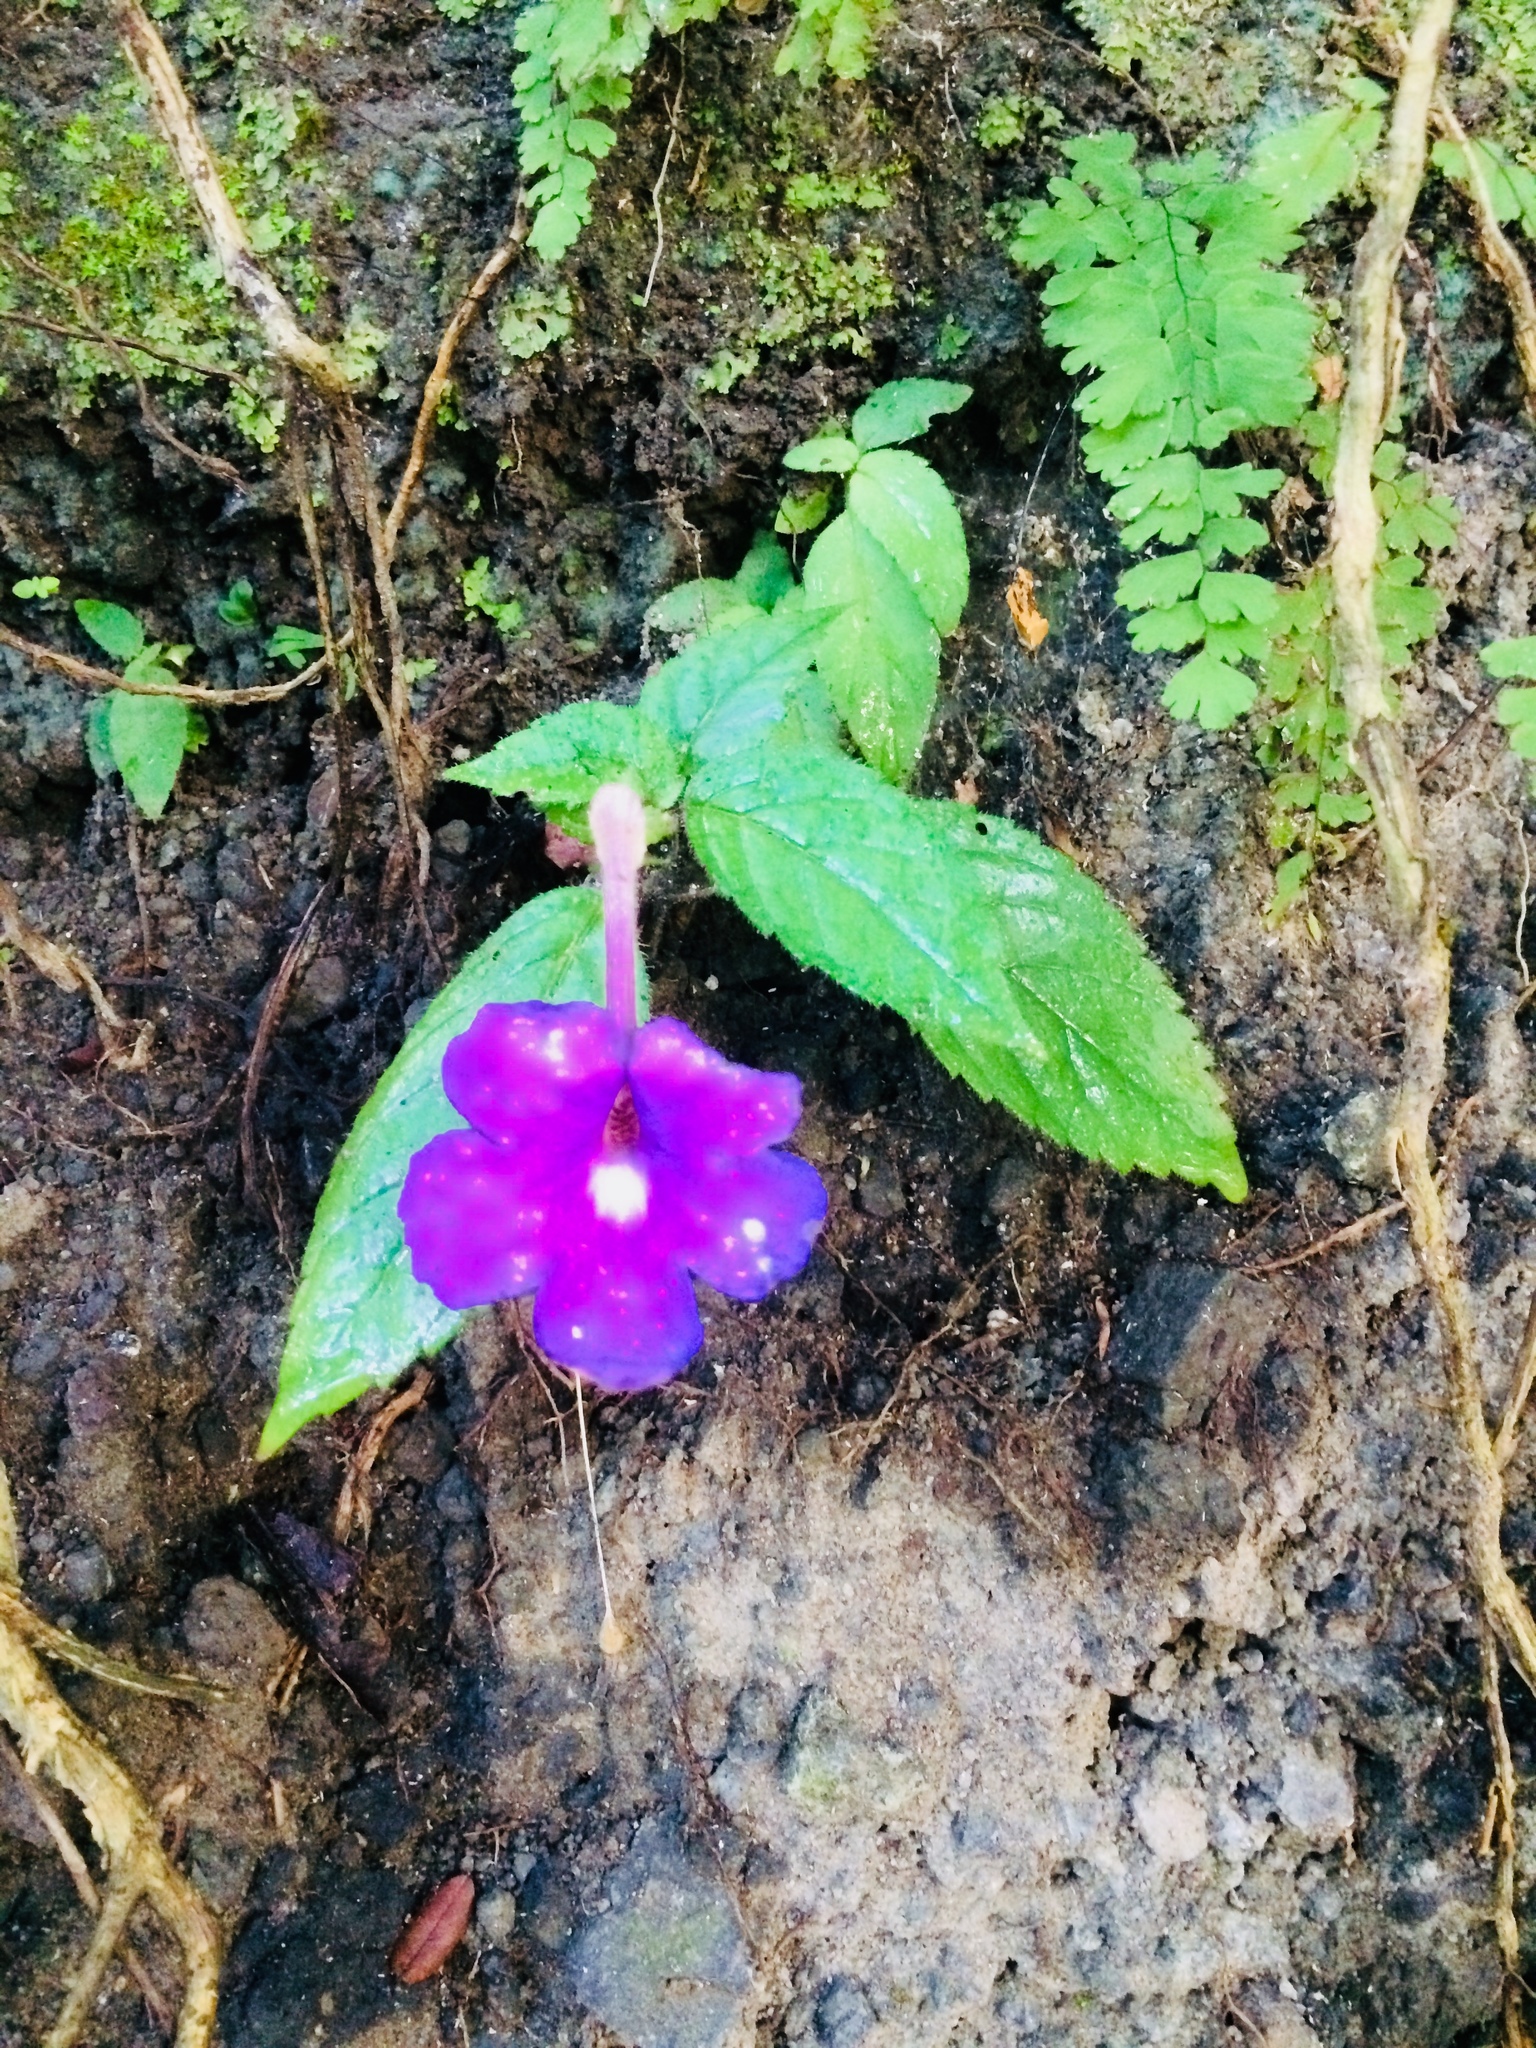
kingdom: Plantae
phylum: Tracheophyta
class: Magnoliopsida
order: Lamiales
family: Gesneriaceae
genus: Achimenes
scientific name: Achimenes grandiflora
